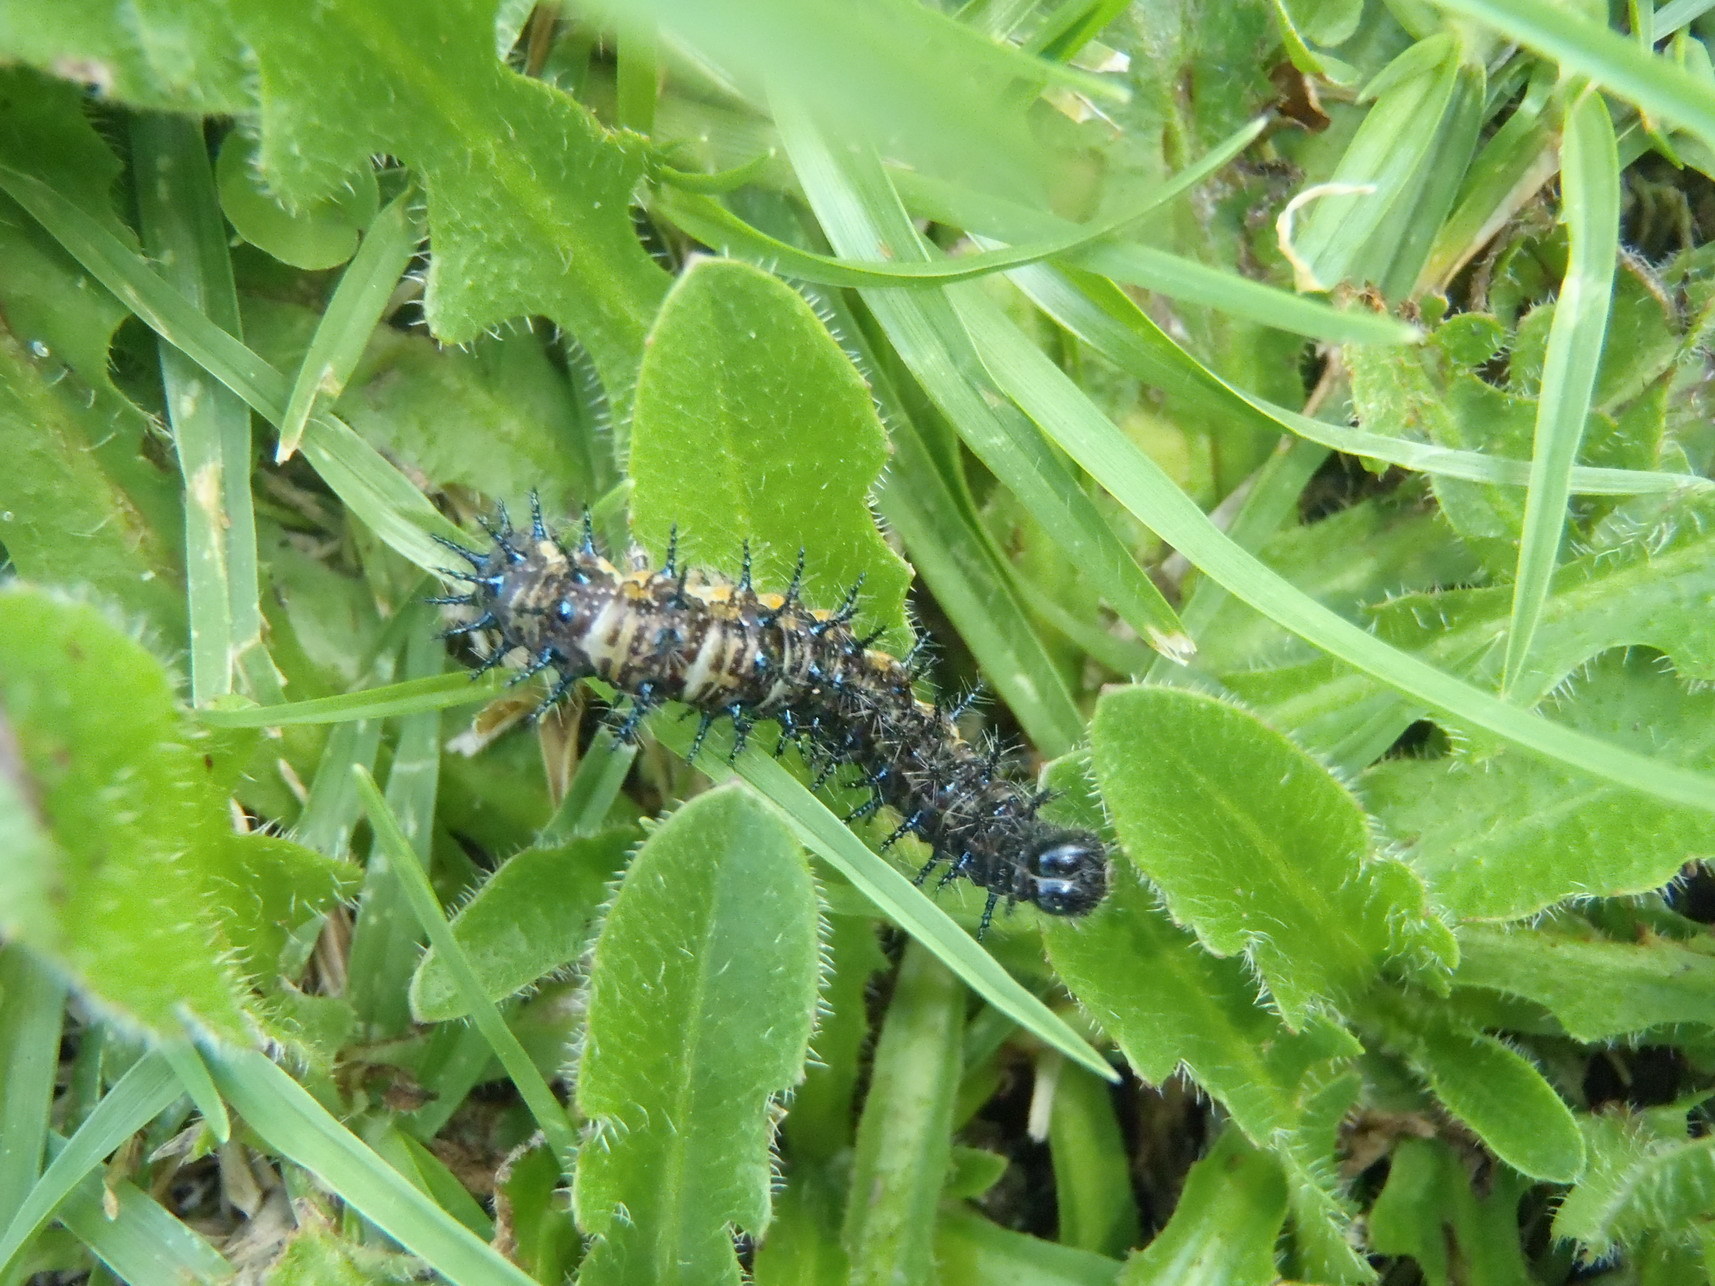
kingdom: Animalia
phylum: Arthropoda
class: Insecta
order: Lepidoptera
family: Nymphalidae
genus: Acraea
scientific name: Acraea horta
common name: Garden acraea
